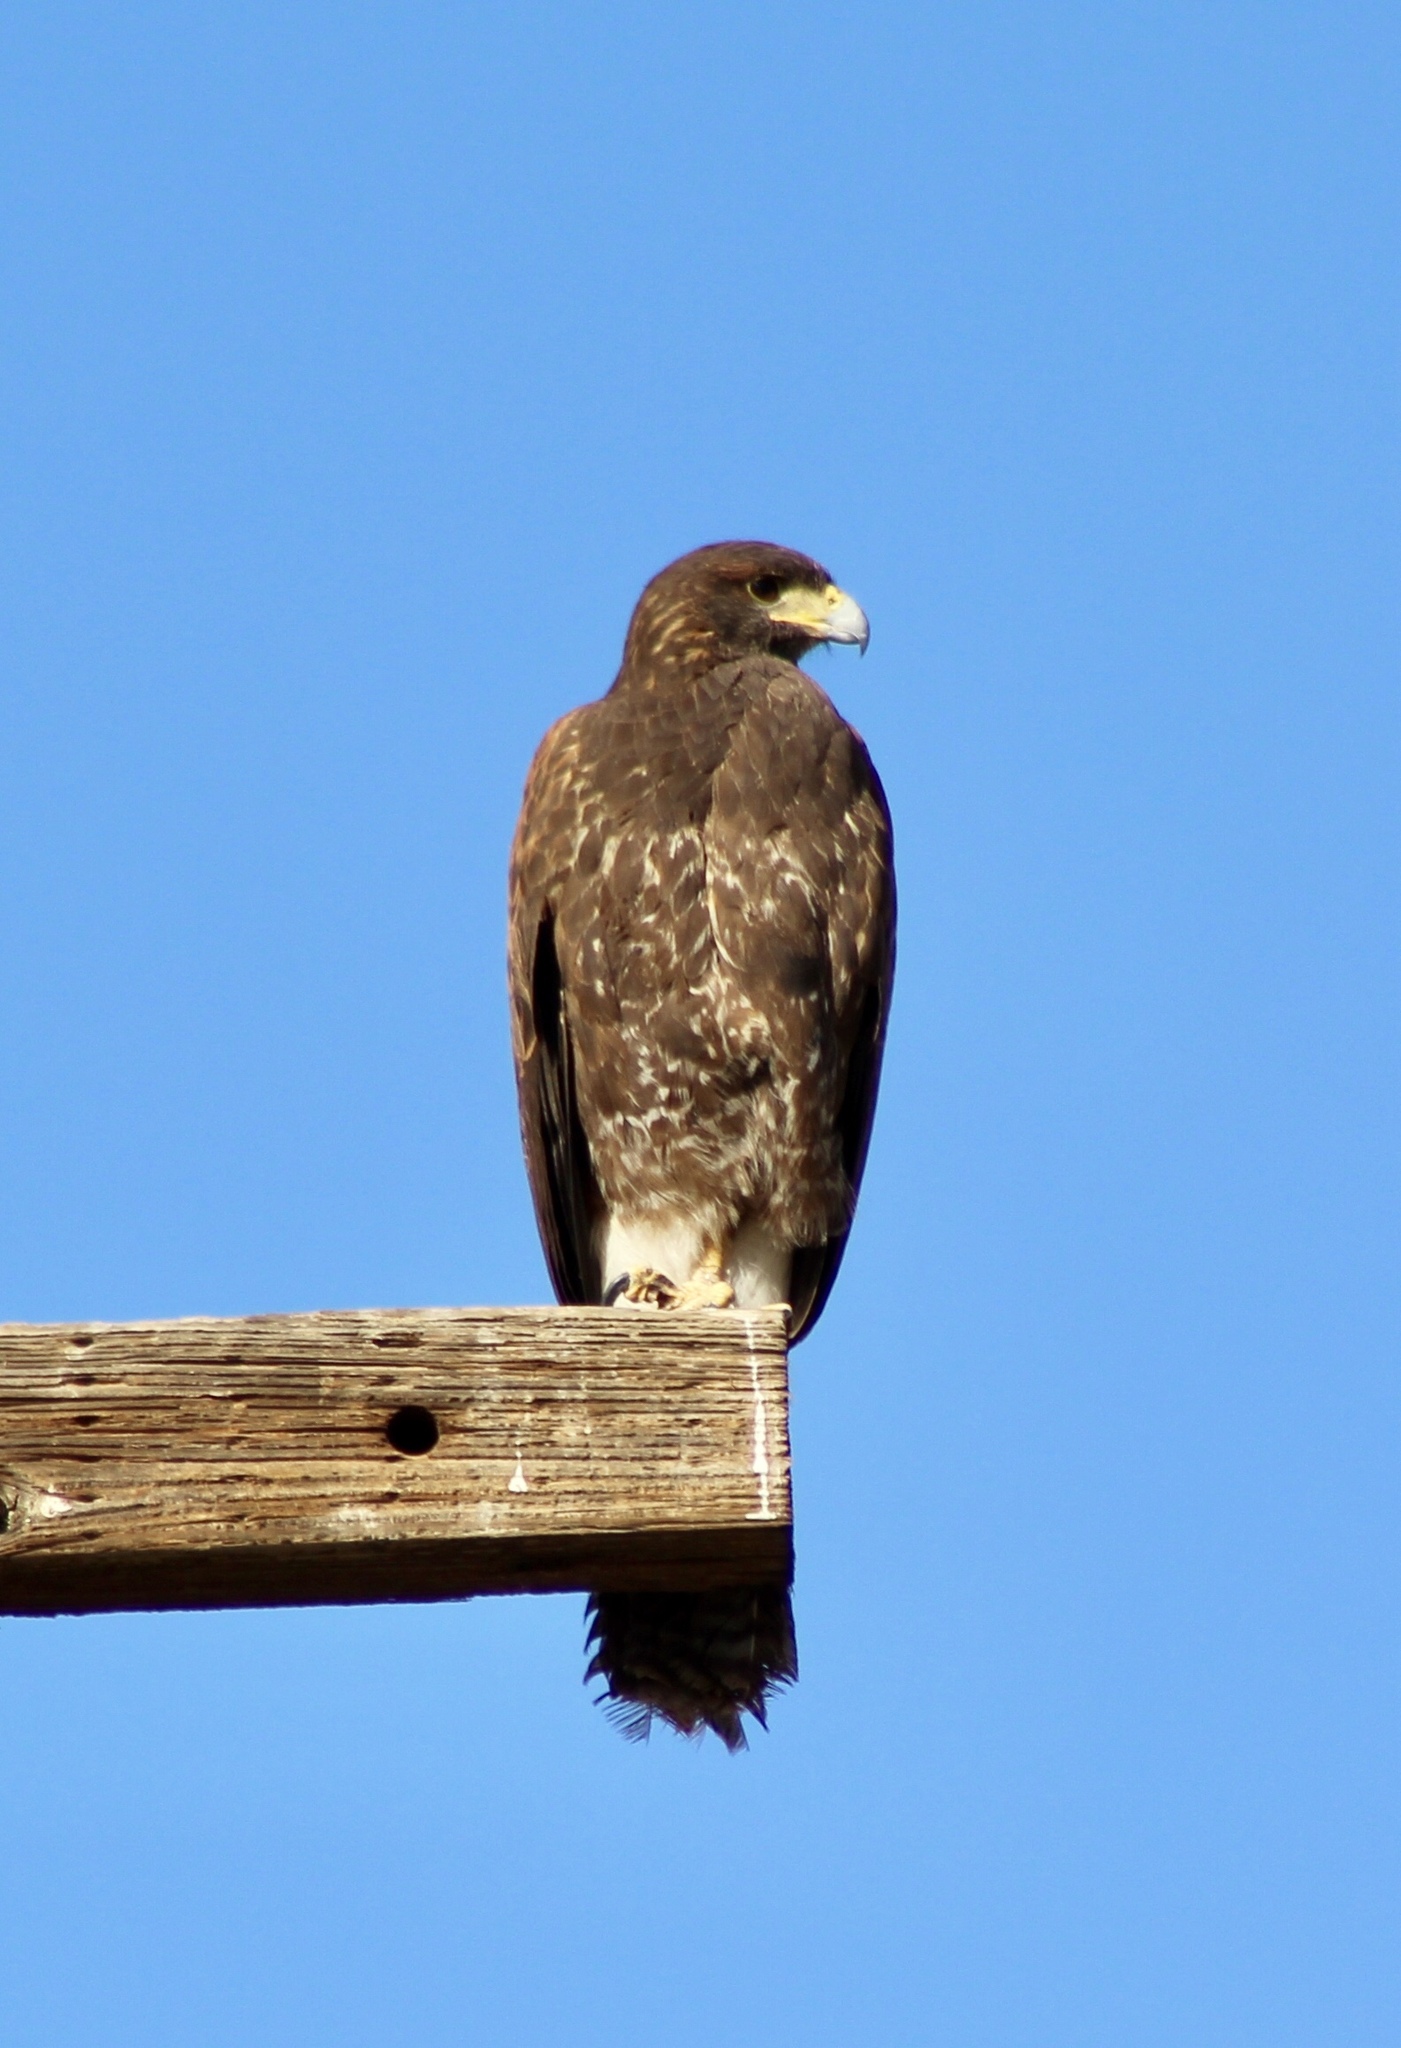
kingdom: Animalia
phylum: Chordata
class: Aves
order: Accipitriformes
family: Accipitridae
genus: Parabuteo
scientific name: Parabuteo unicinctus
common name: Harris's hawk
